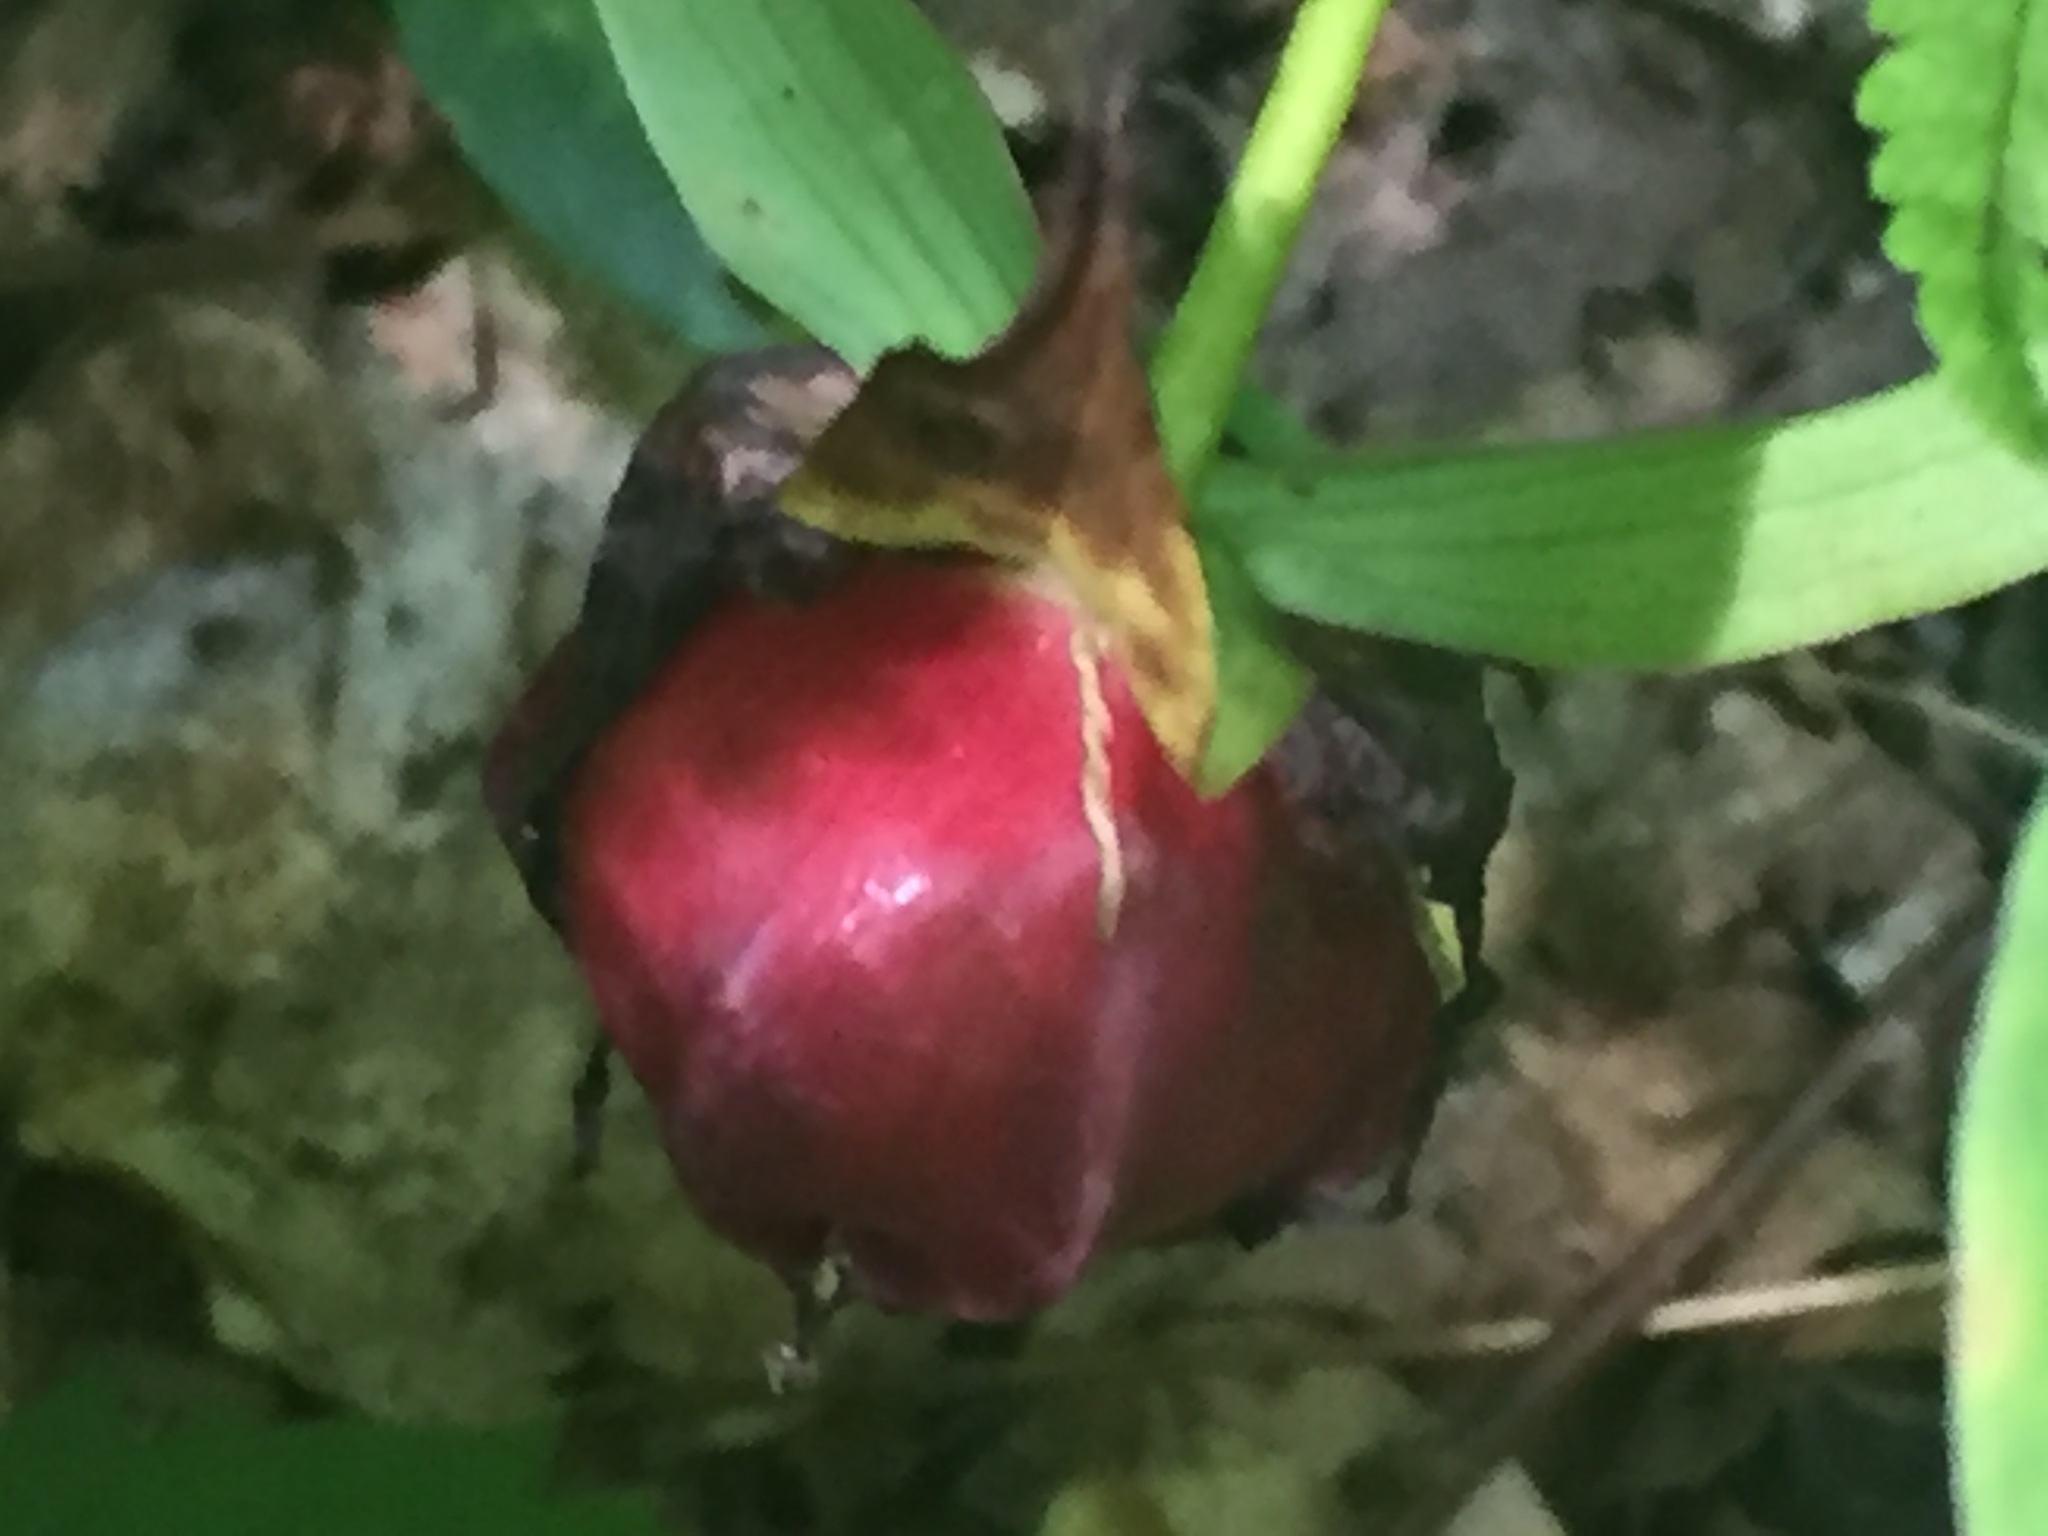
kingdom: Plantae
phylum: Tracheophyta
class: Liliopsida
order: Liliales
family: Melanthiaceae
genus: Trillium
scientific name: Trillium erectum
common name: Purple trillium
